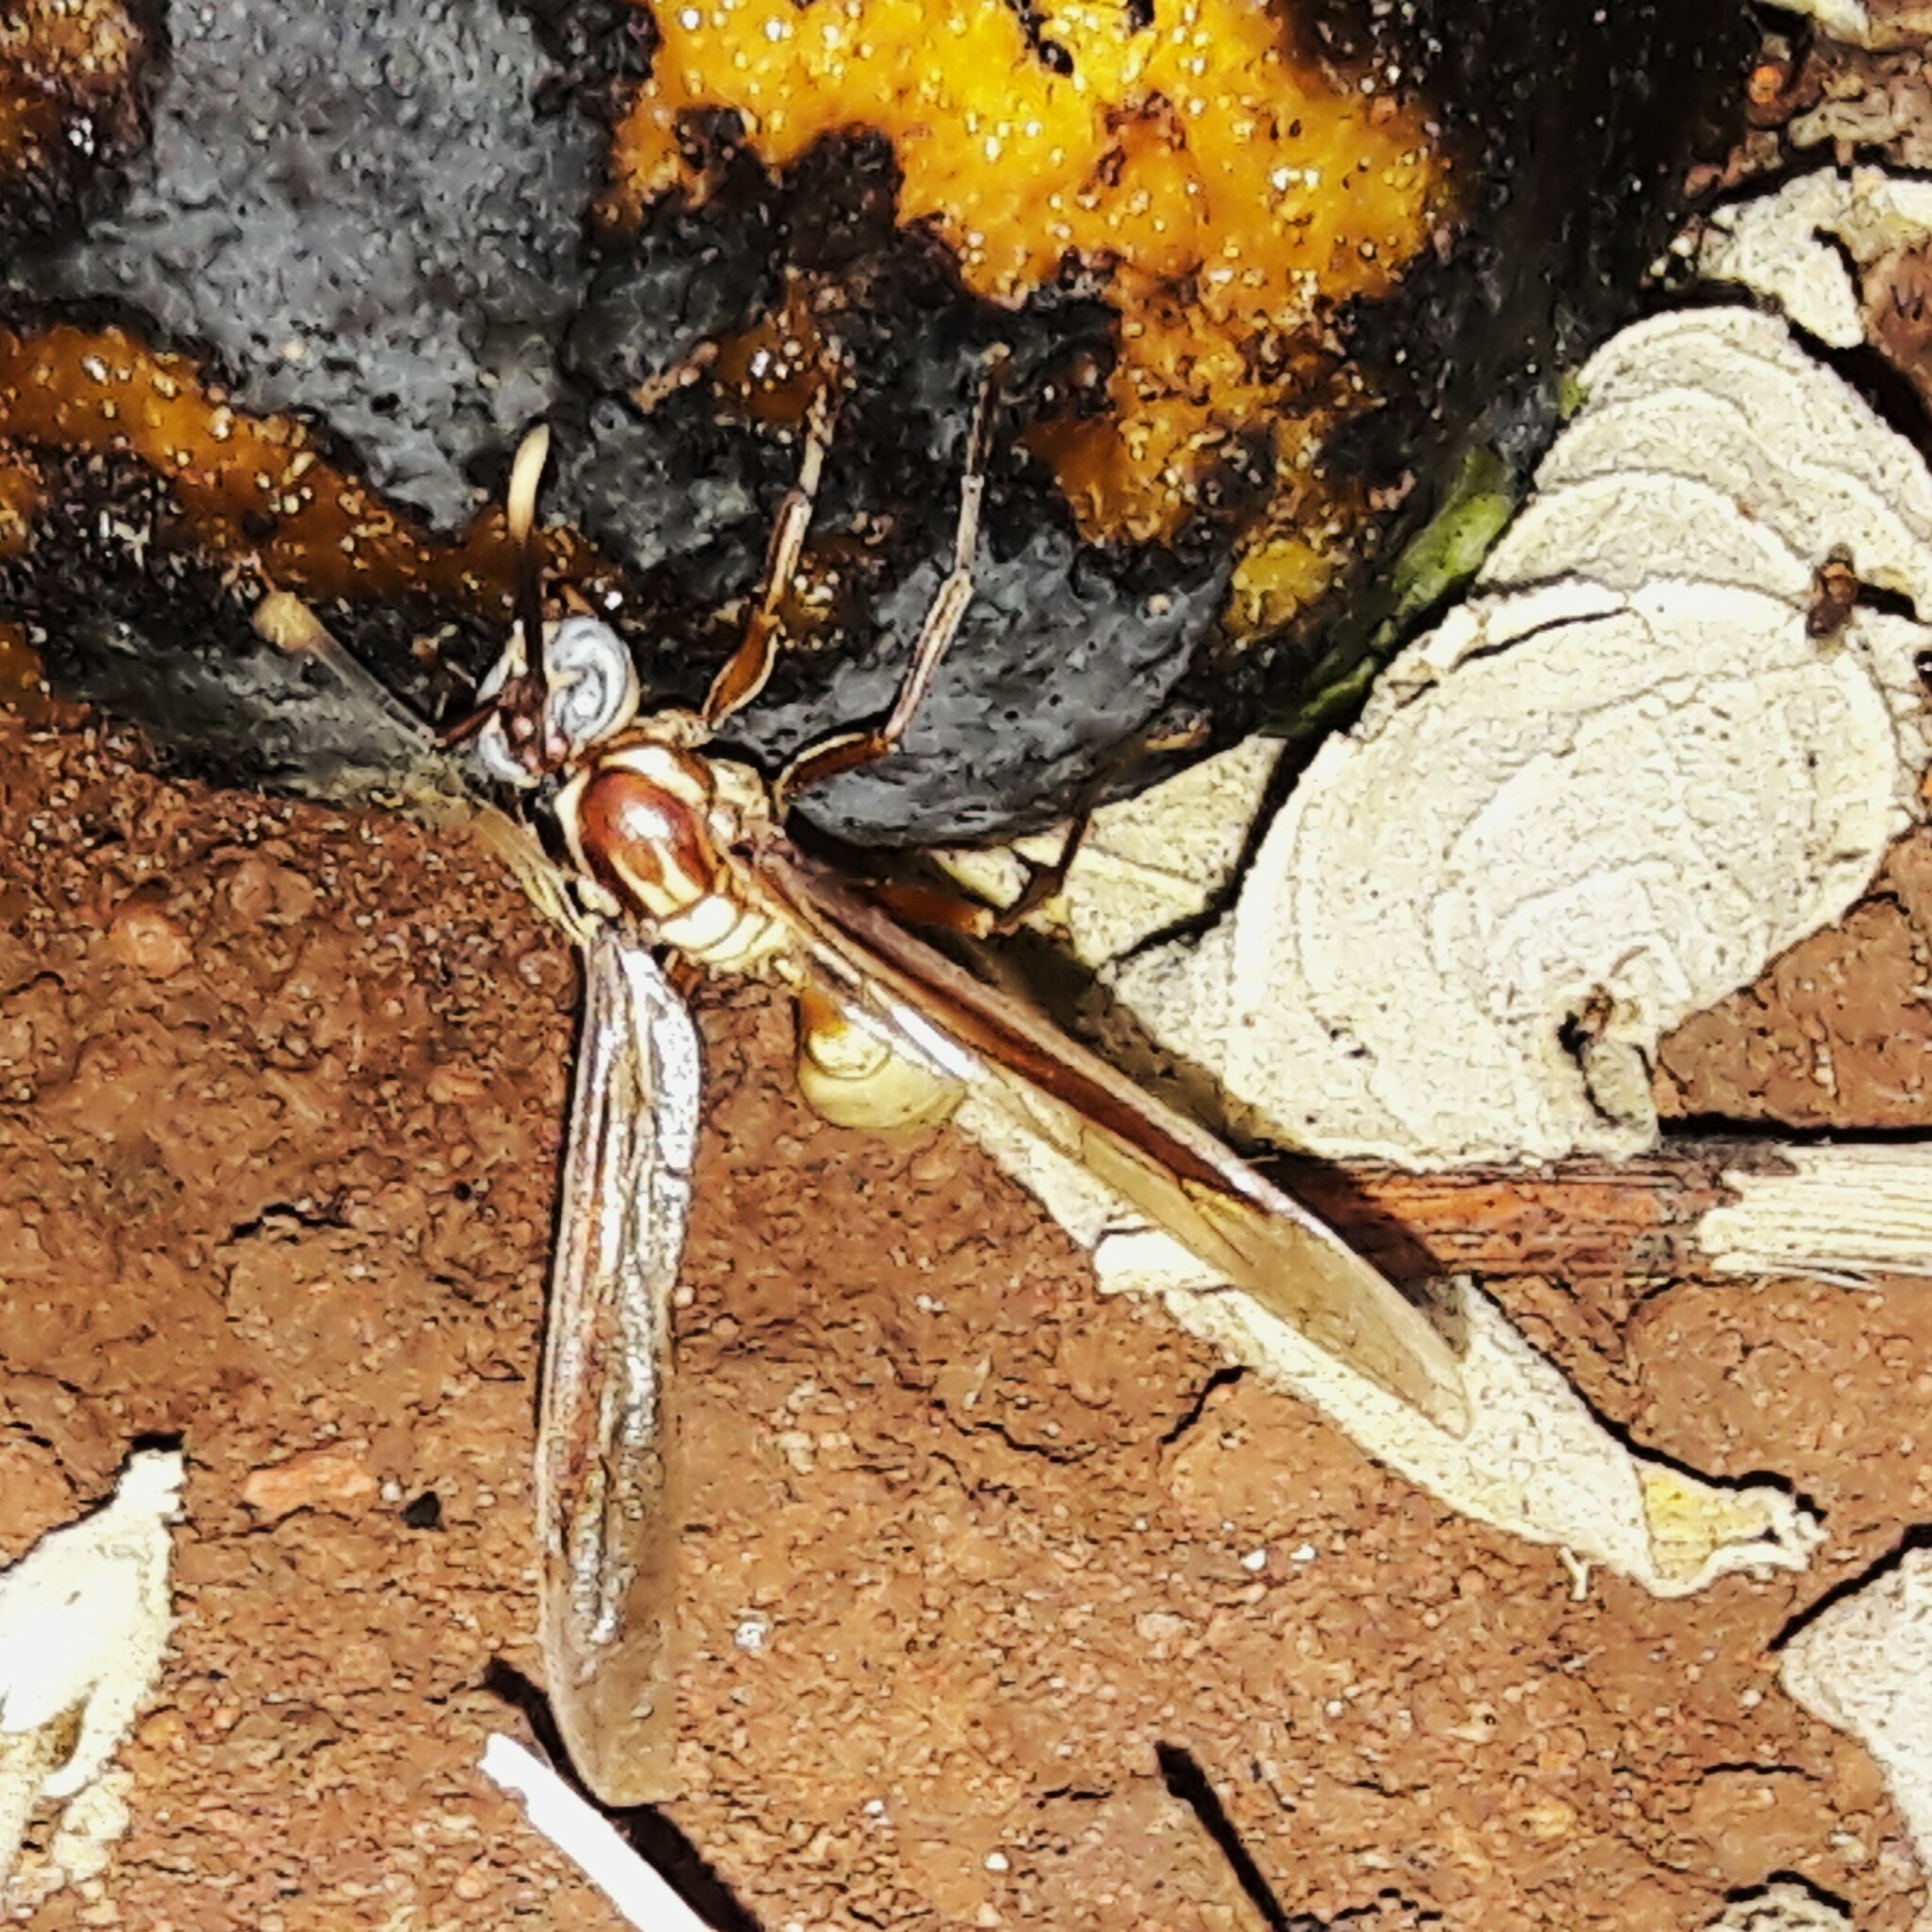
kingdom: Animalia
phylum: Arthropoda
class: Insecta
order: Hymenoptera
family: Vespidae
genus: Apoica
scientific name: Apoica flavissima
